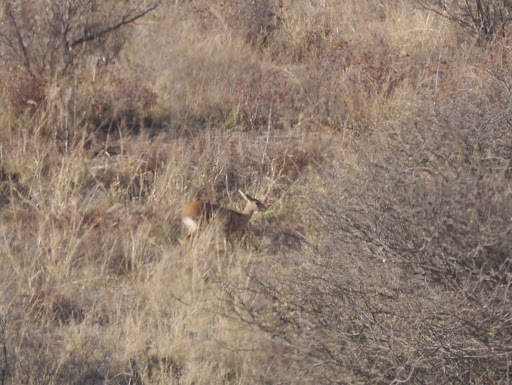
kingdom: Animalia
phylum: Chordata
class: Mammalia
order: Artiodactyla
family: Bovidae
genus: Raphicerus
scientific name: Raphicerus campestris
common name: Steenbok
